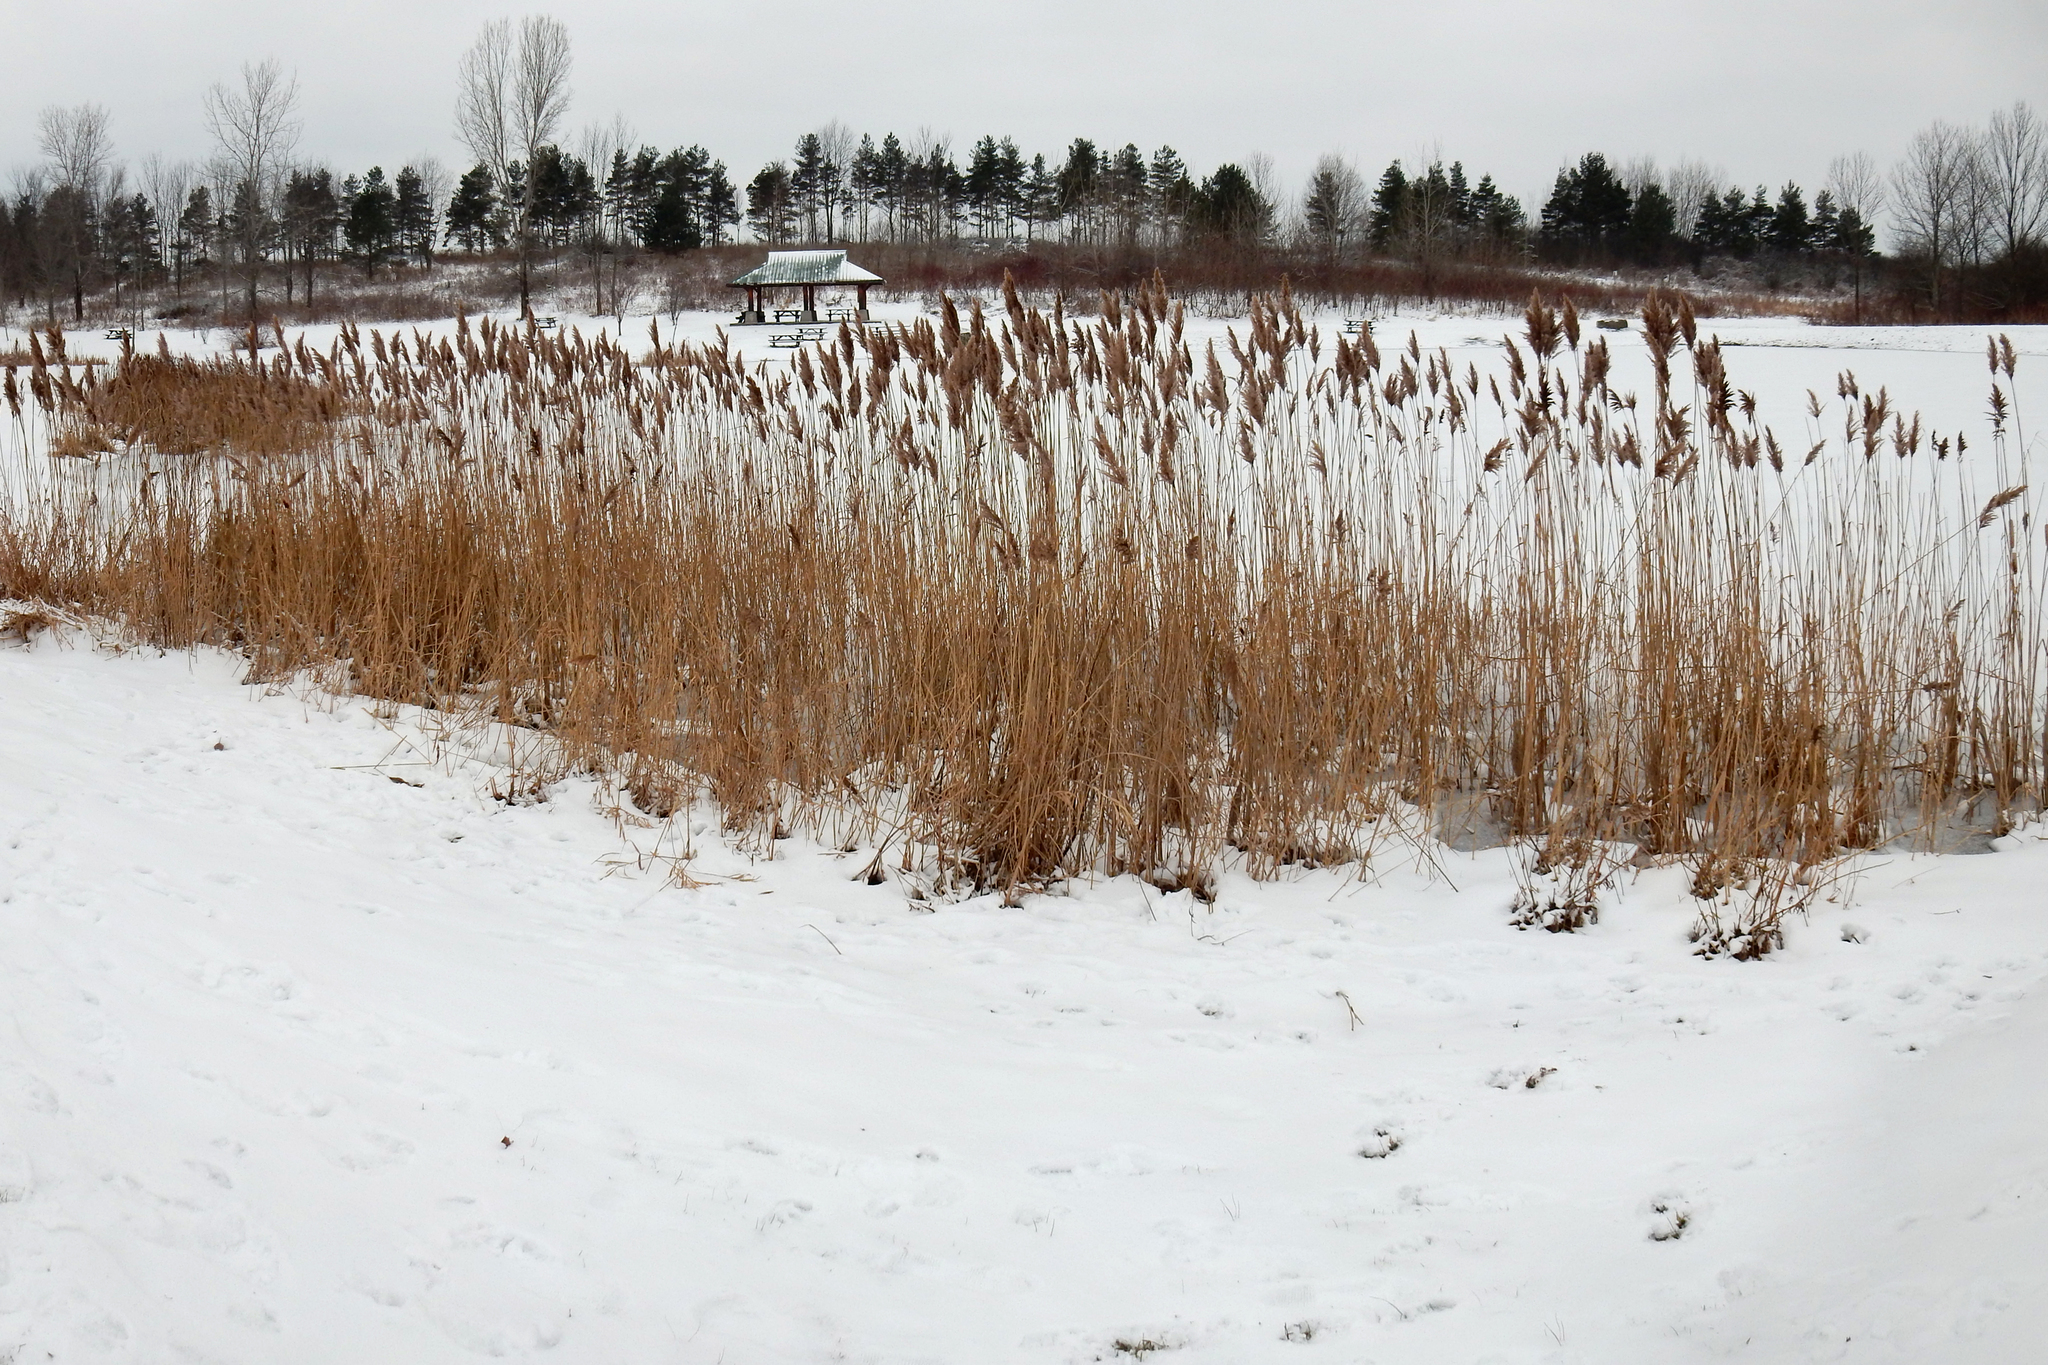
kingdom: Plantae
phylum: Tracheophyta
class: Liliopsida
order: Poales
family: Poaceae
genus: Phragmites
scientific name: Phragmites australis
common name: Common reed
